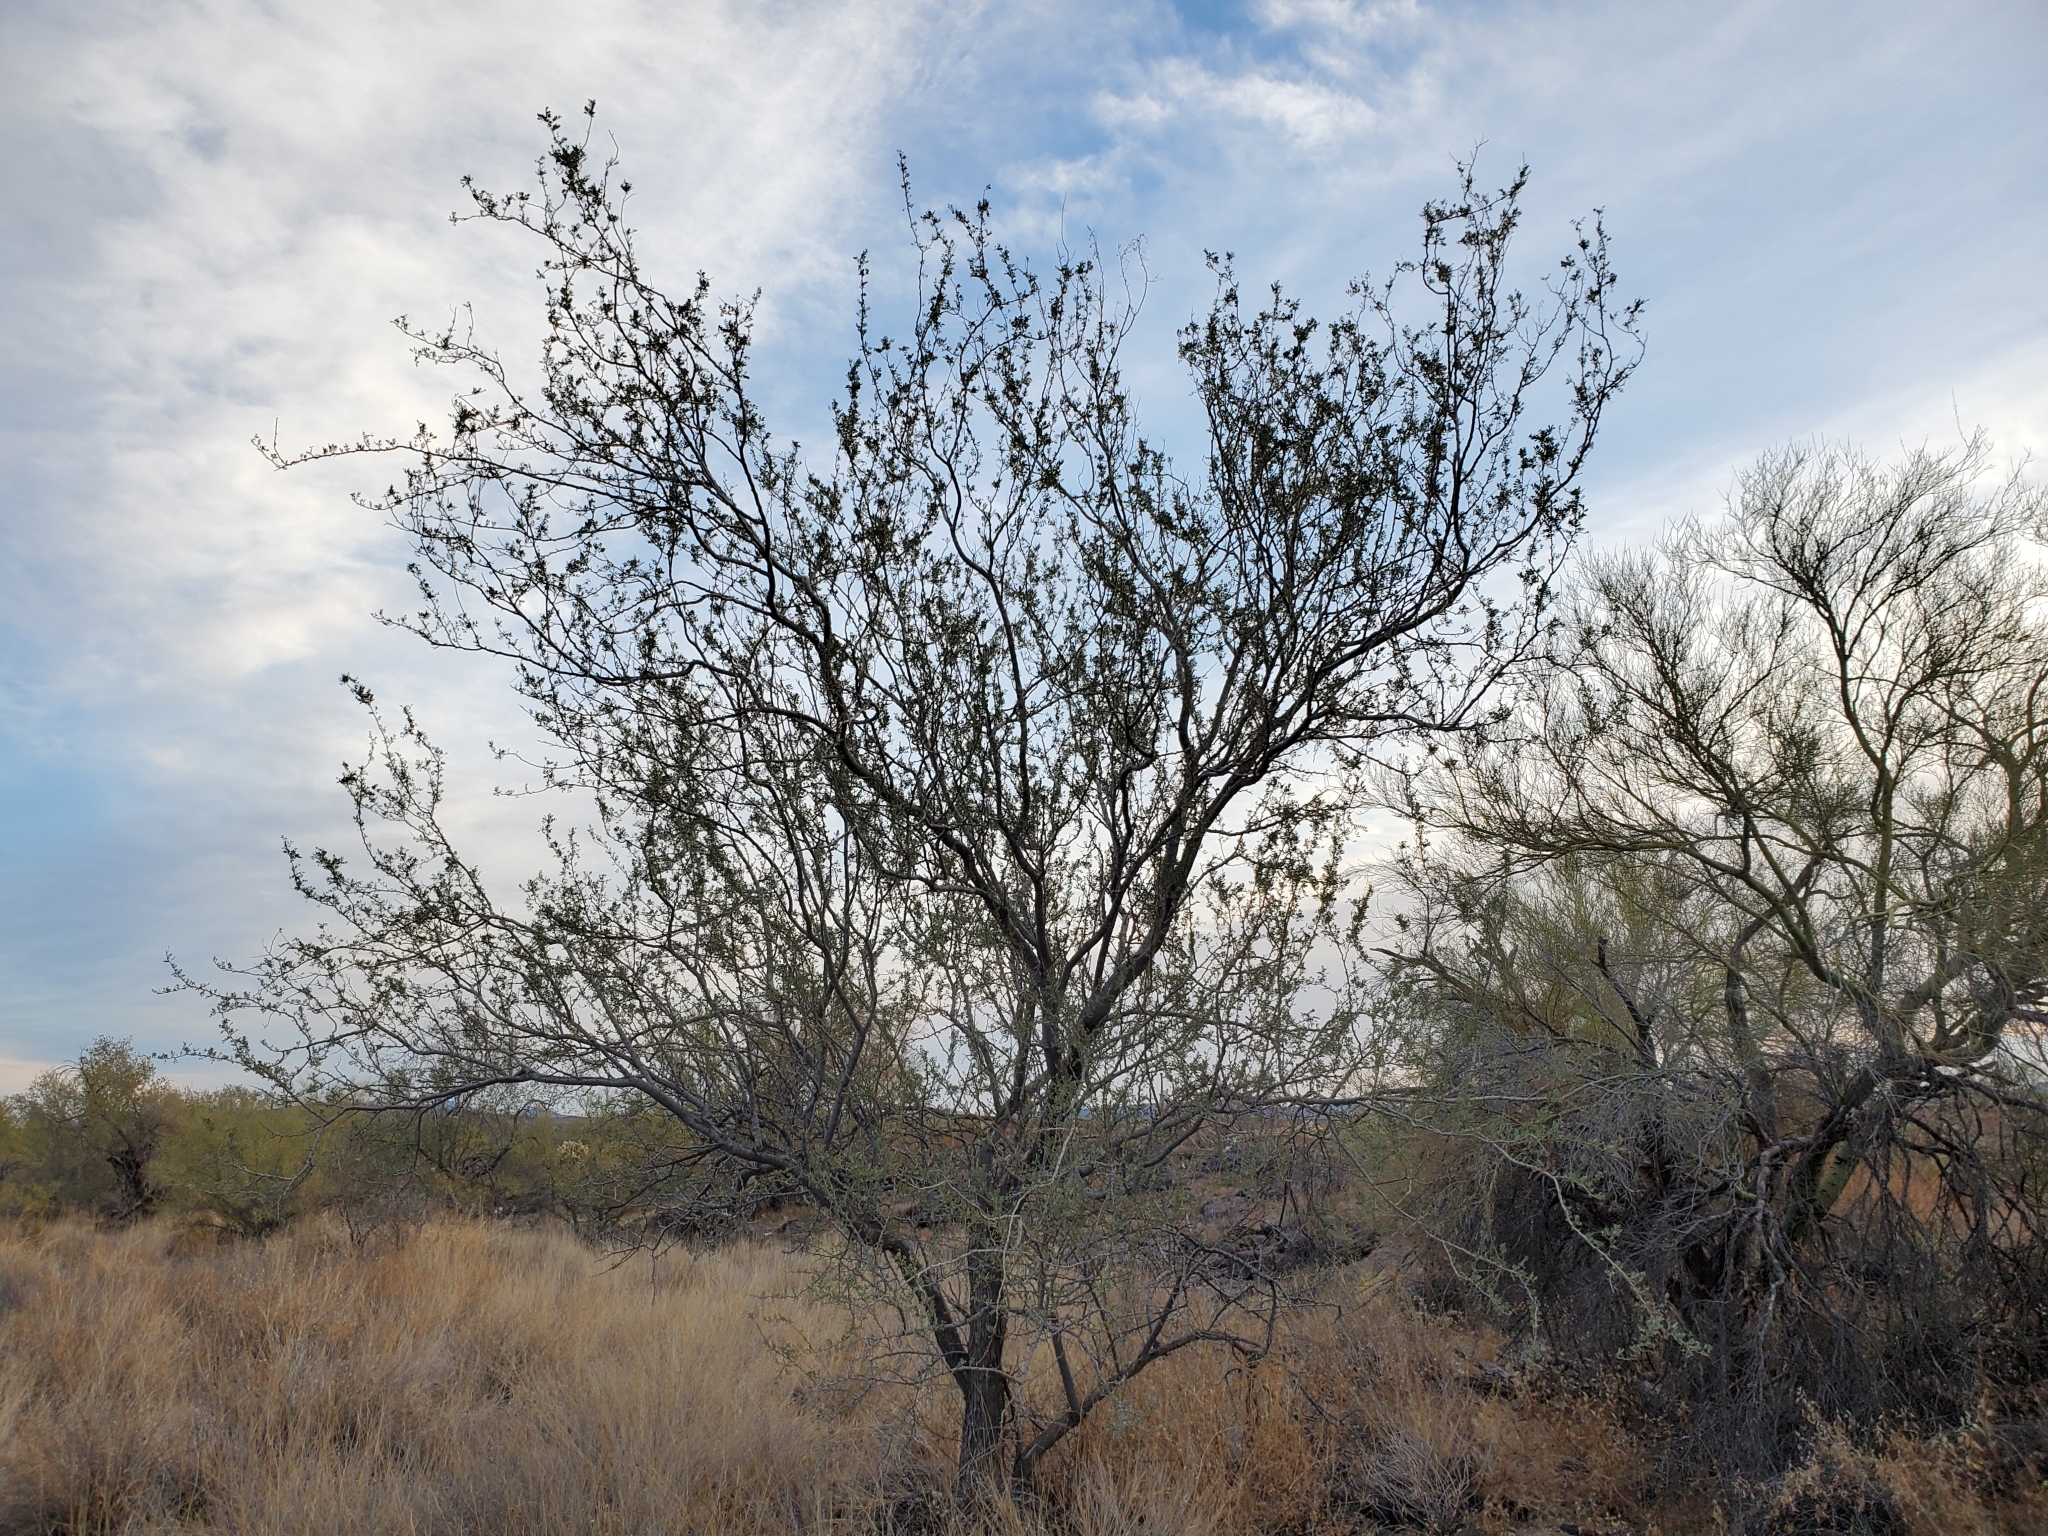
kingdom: Plantae
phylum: Tracheophyta
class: Magnoliopsida
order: Fabales
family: Fabaceae
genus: Olneya
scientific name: Olneya tesota
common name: Desert ironwood
